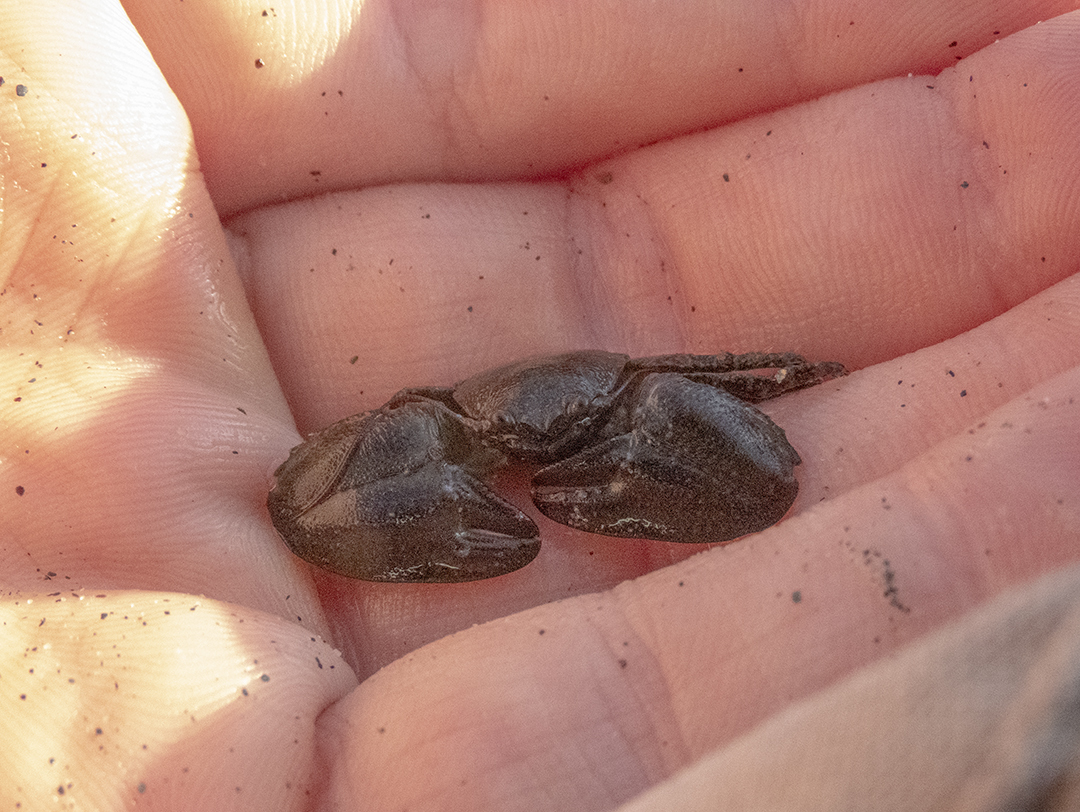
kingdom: Animalia
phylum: Arthropoda
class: Malacostraca
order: Decapoda
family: Porcellanidae
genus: Petrolisthes
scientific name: Petrolisthes elongatus
